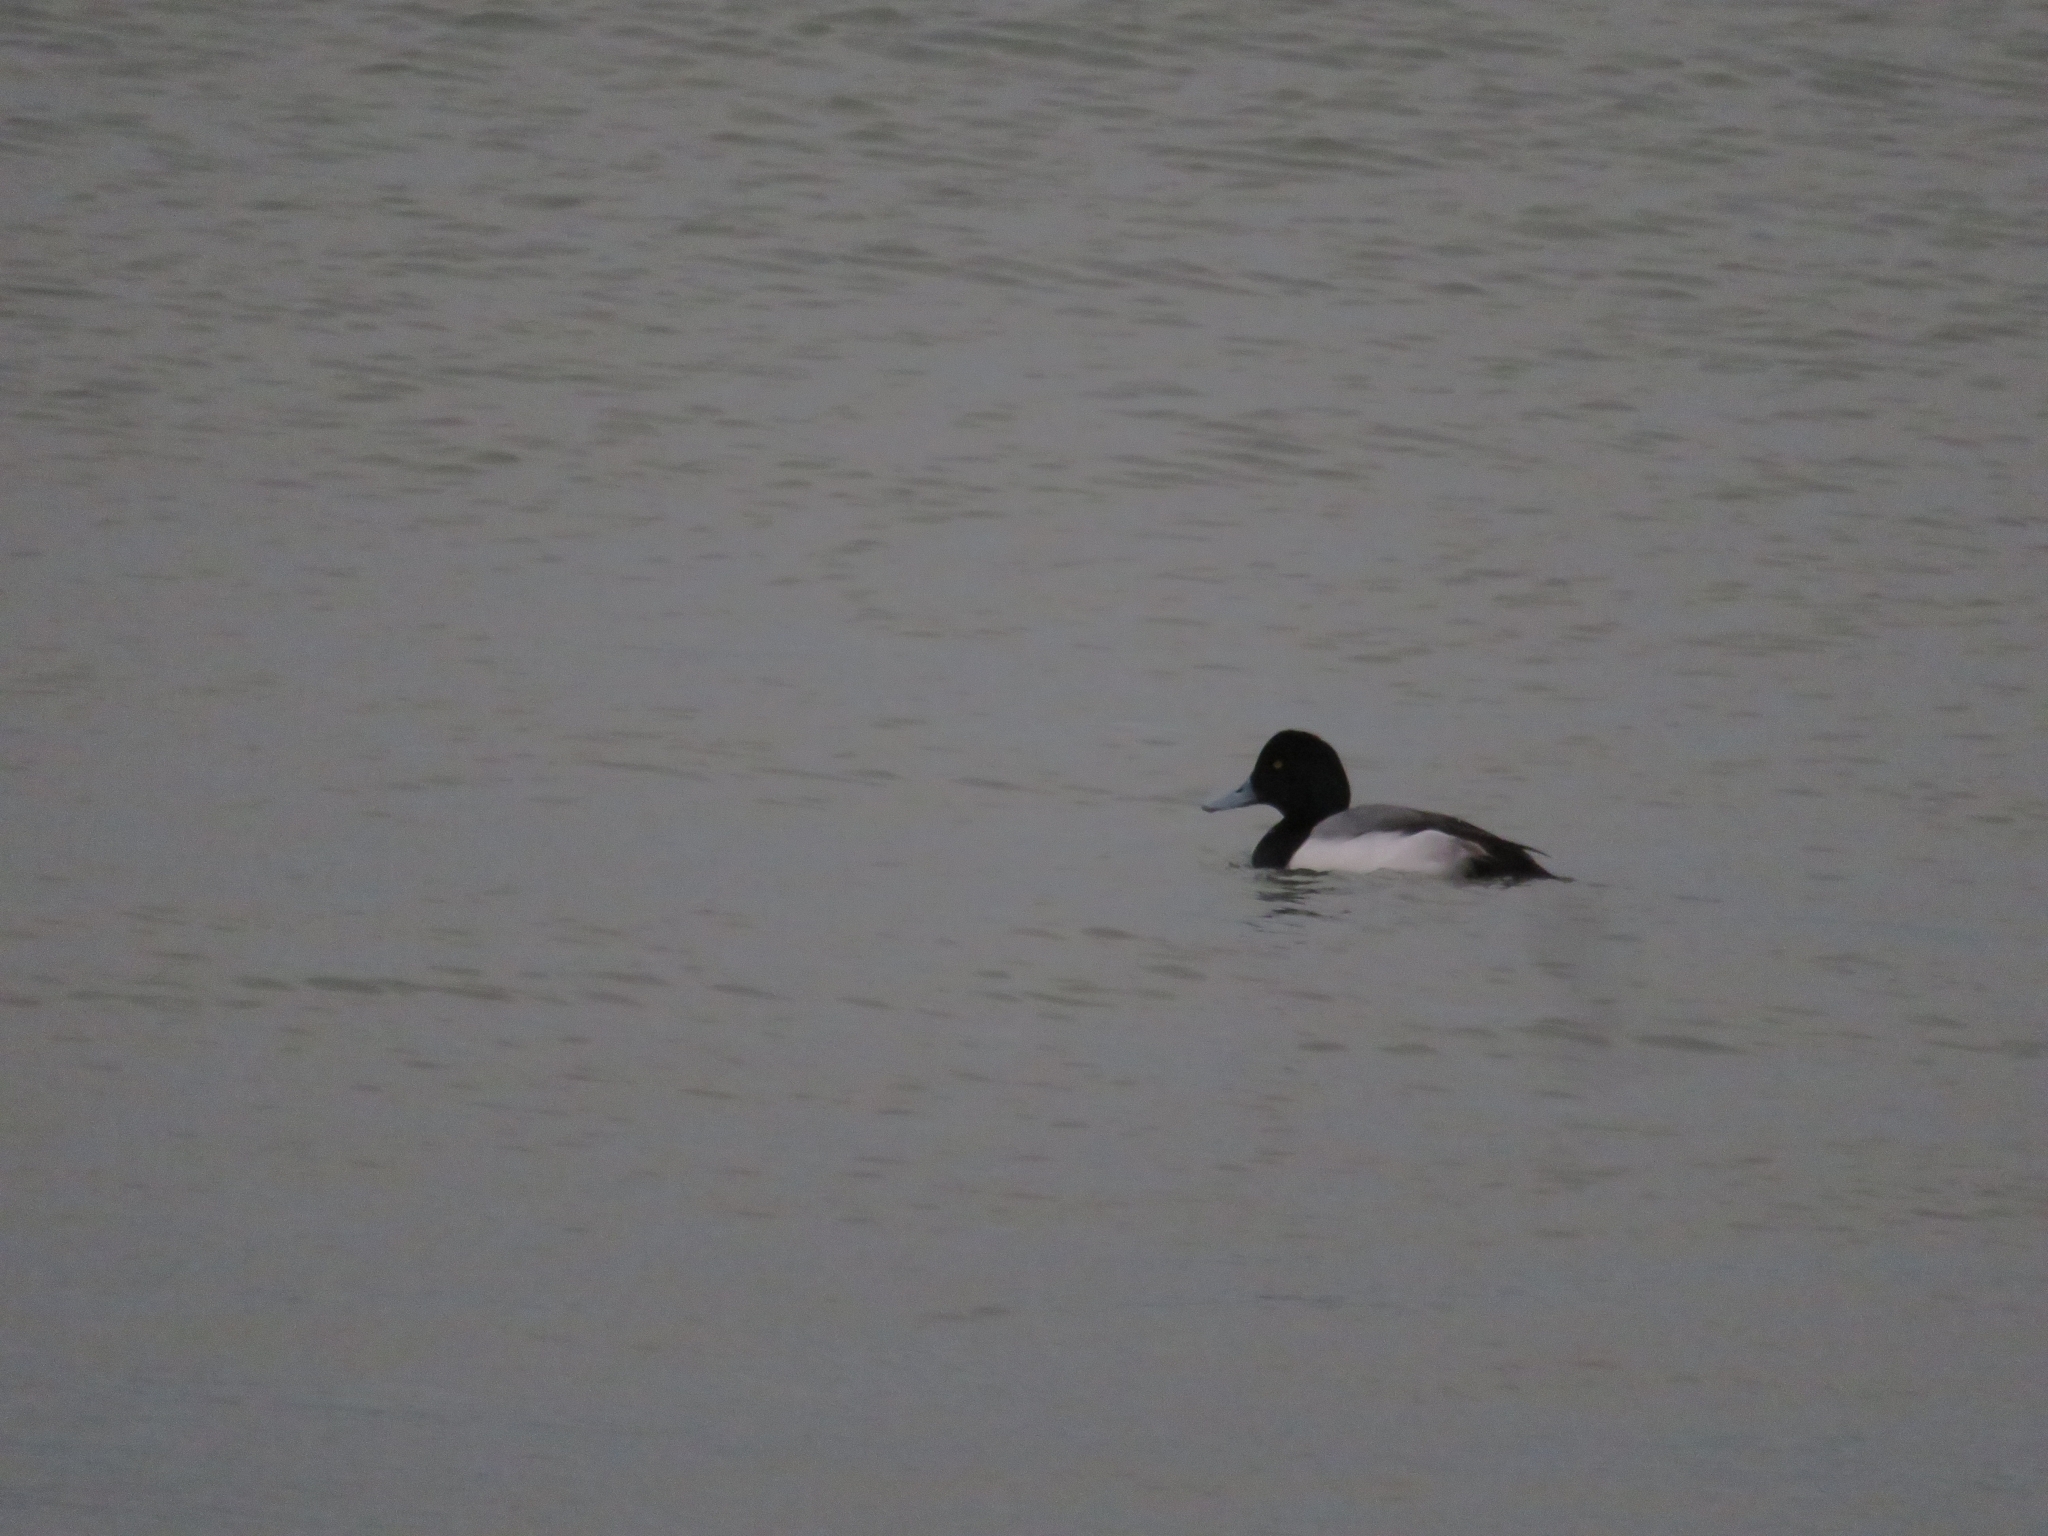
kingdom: Animalia
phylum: Chordata
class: Aves
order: Anseriformes
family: Anatidae
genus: Aythya
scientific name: Aythya marila
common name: Greater scaup
